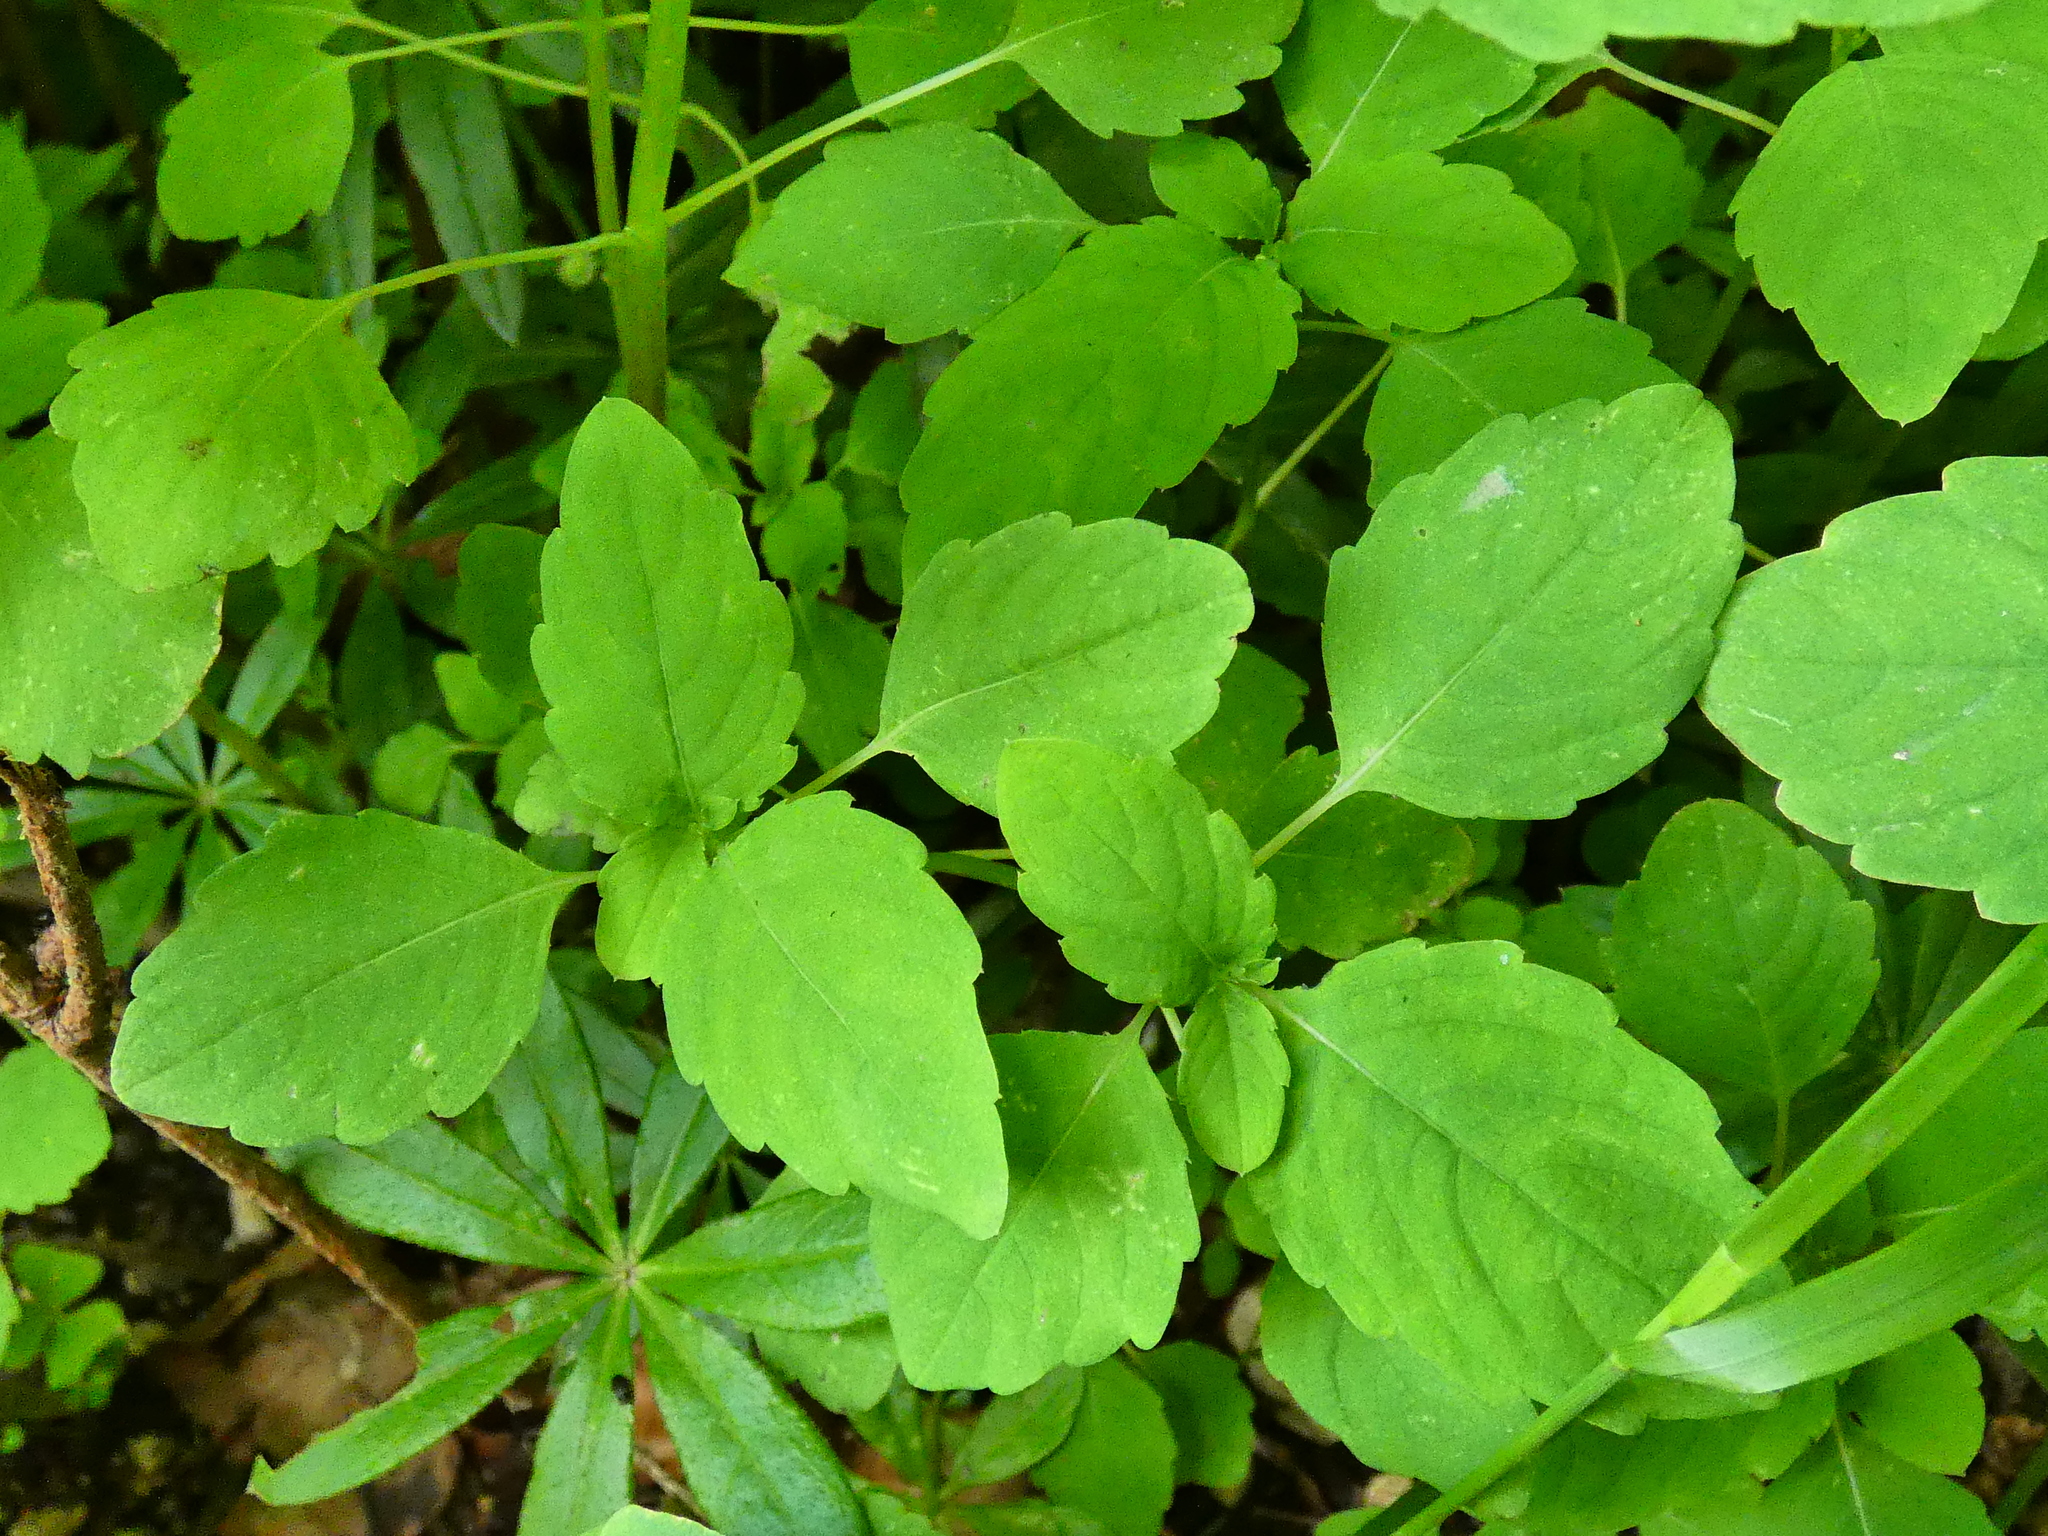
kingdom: Plantae
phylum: Tracheophyta
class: Magnoliopsida
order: Ericales
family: Balsaminaceae
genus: Impatiens
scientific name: Impatiens noli-tangere
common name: Touch-me-not balsam
